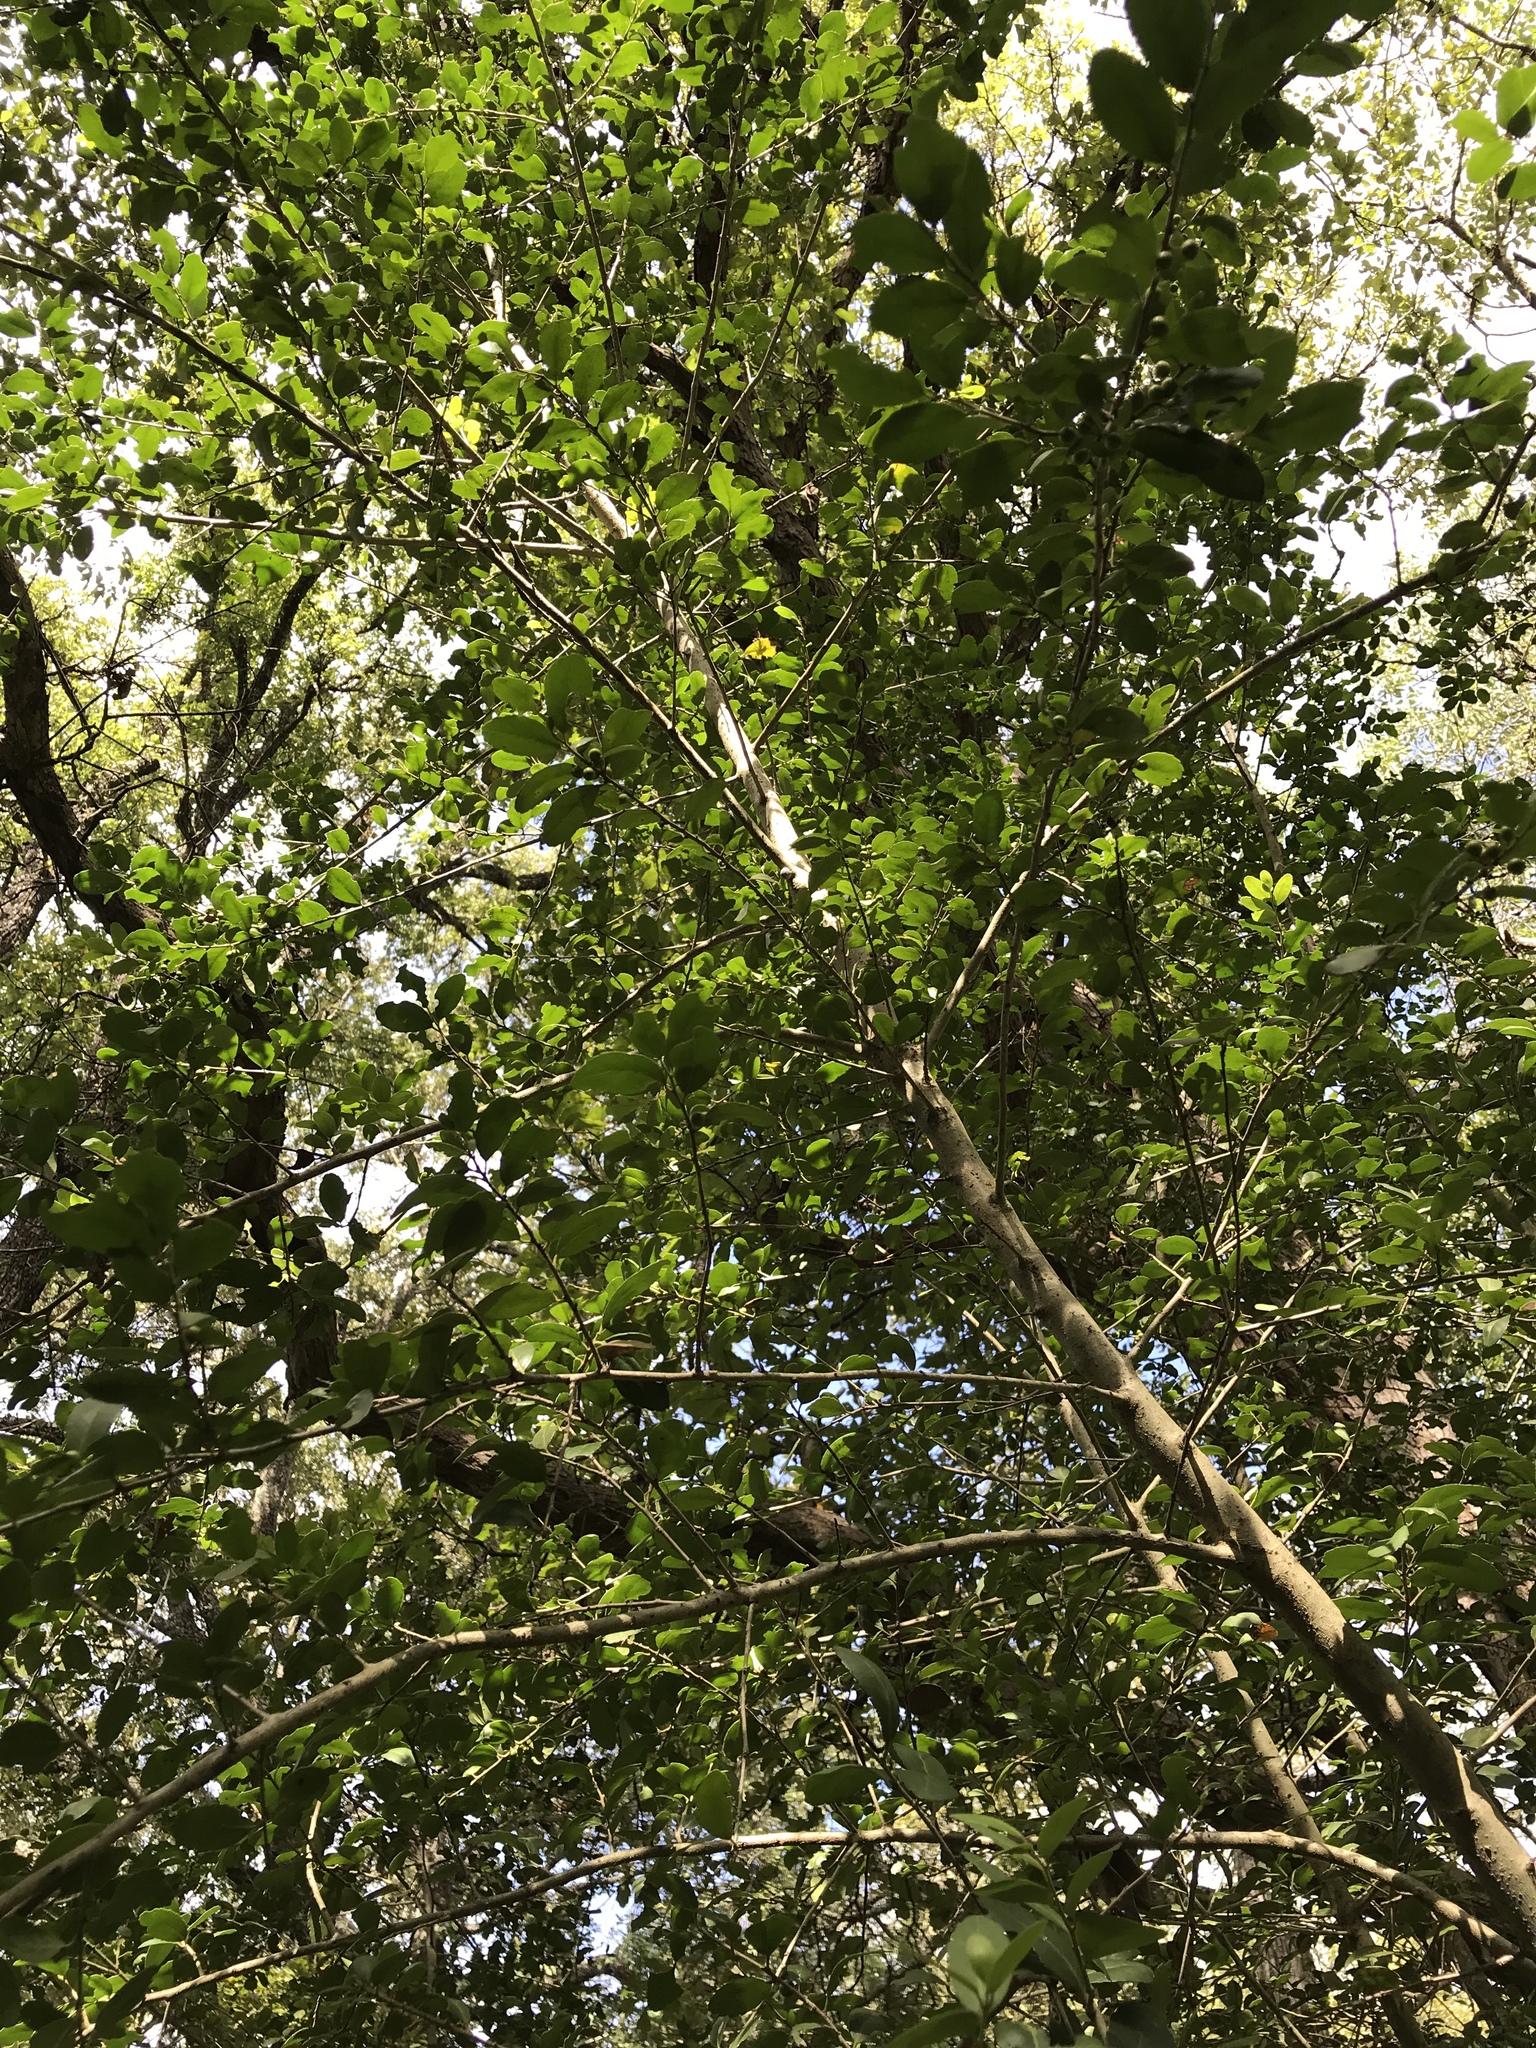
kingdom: Plantae
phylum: Tracheophyta
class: Magnoliopsida
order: Aquifoliales
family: Aquifoliaceae
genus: Ilex
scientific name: Ilex vomitoria
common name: Yaupon holly
